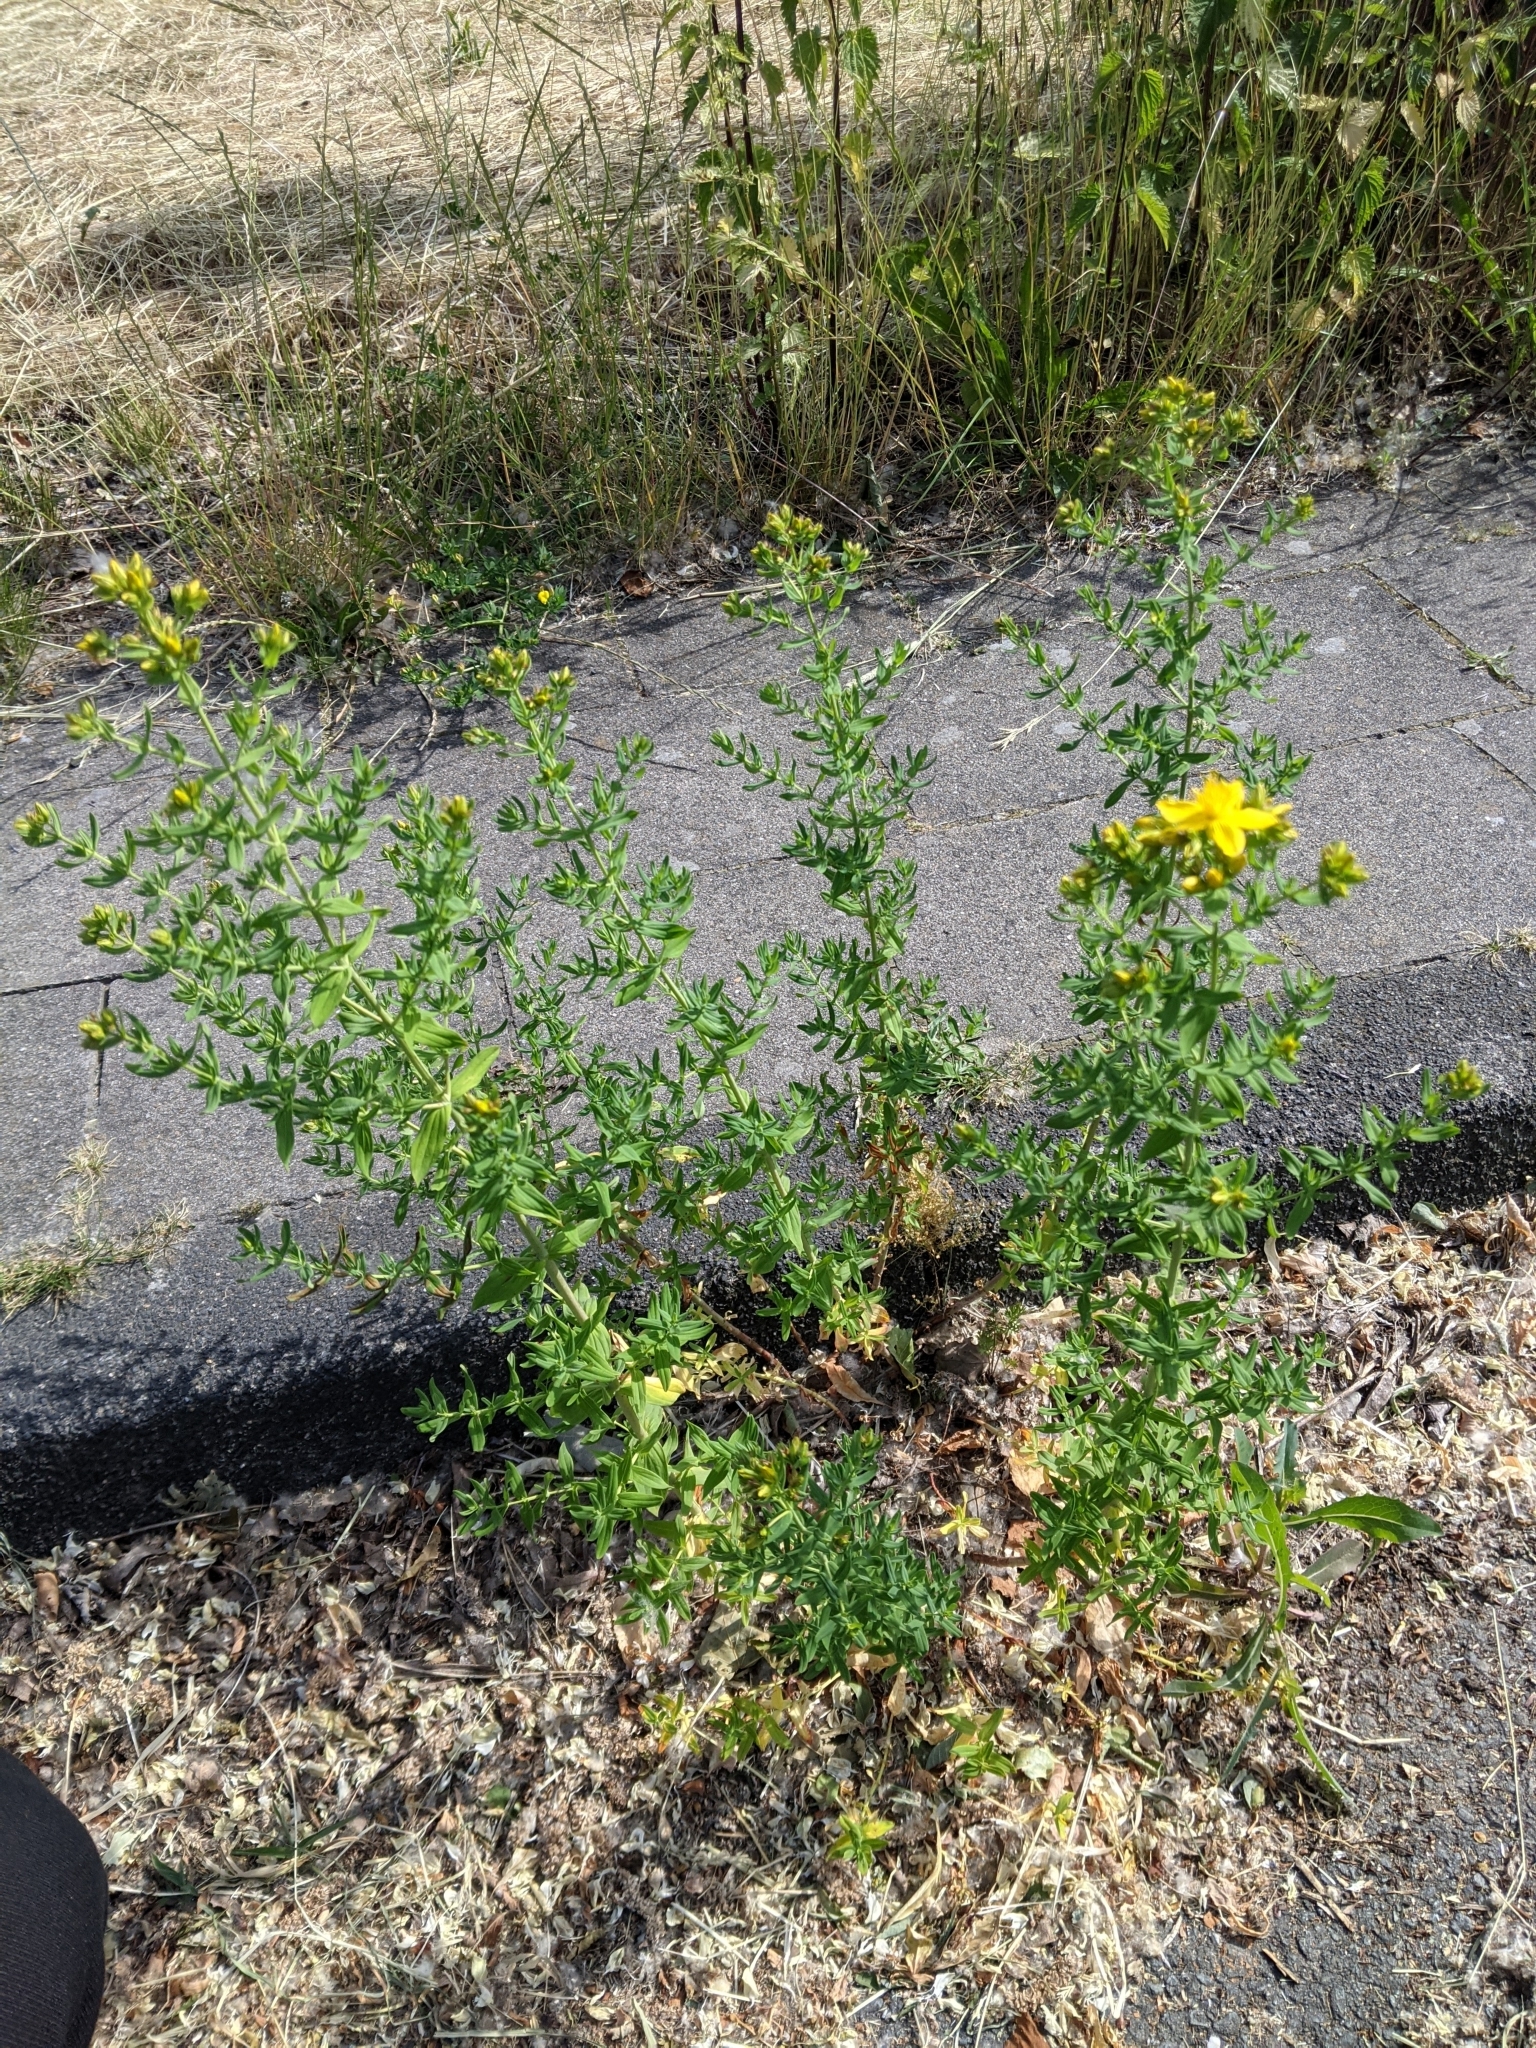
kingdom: Plantae
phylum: Tracheophyta
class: Magnoliopsida
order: Malpighiales
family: Hypericaceae
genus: Hypericum
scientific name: Hypericum perforatum
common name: Common st. johnswort
